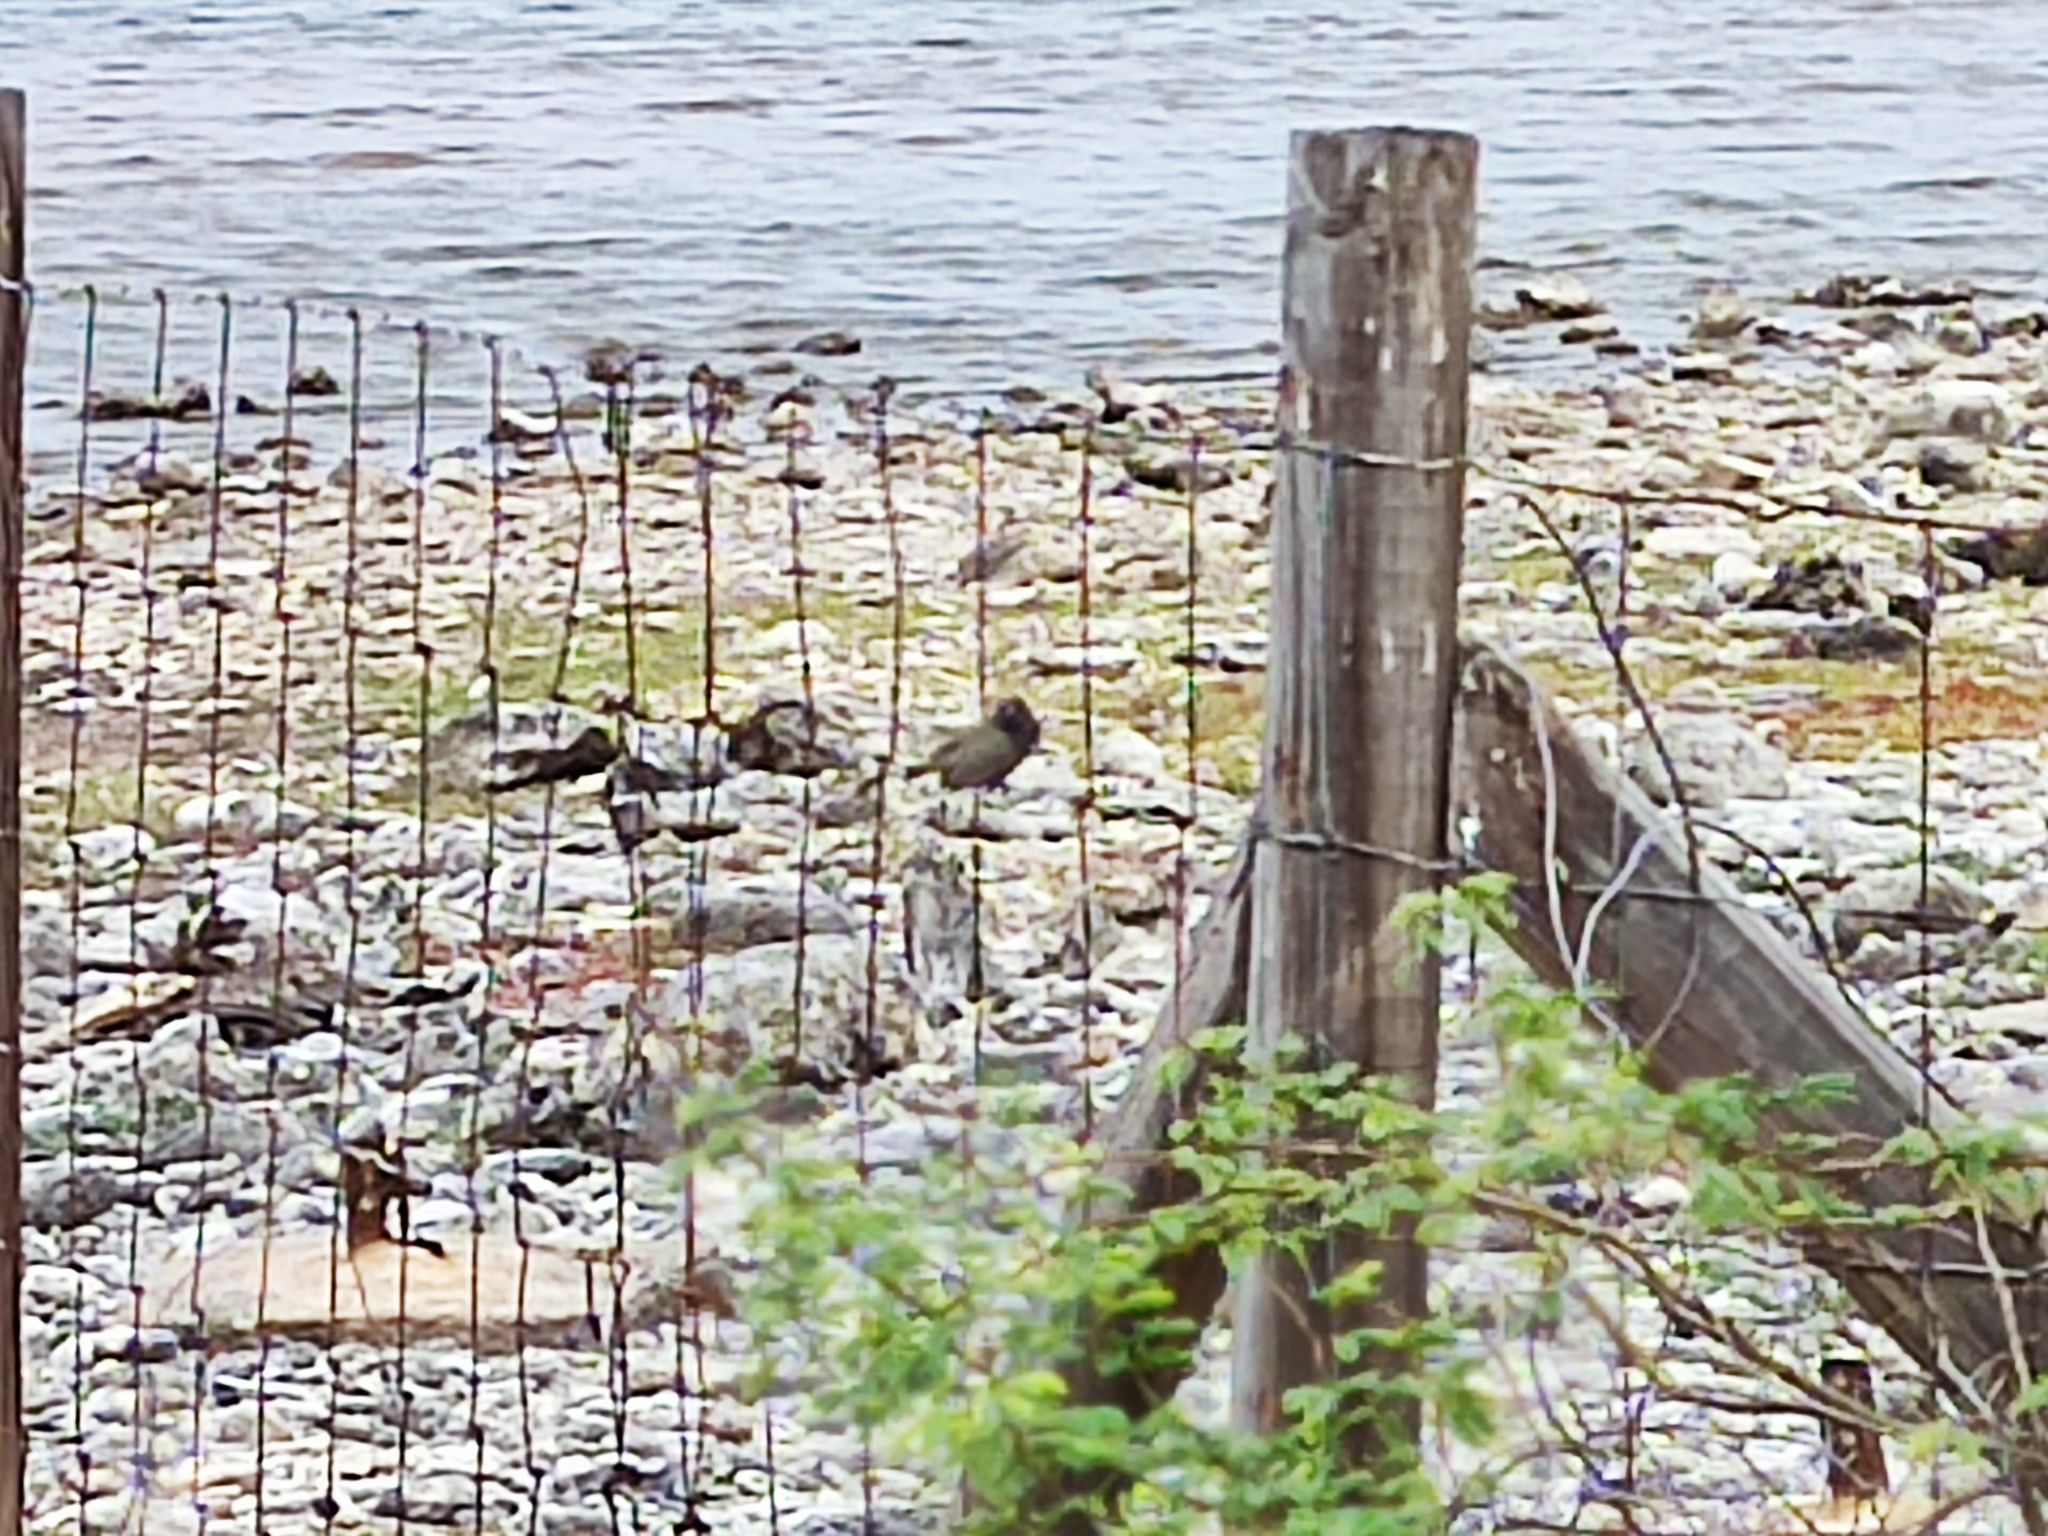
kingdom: Animalia
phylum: Chordata
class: Aves
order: Passeriformes
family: Thraupidae
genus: Melanospiza
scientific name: Melanospiza bicolor
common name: Black-faced grassquit
